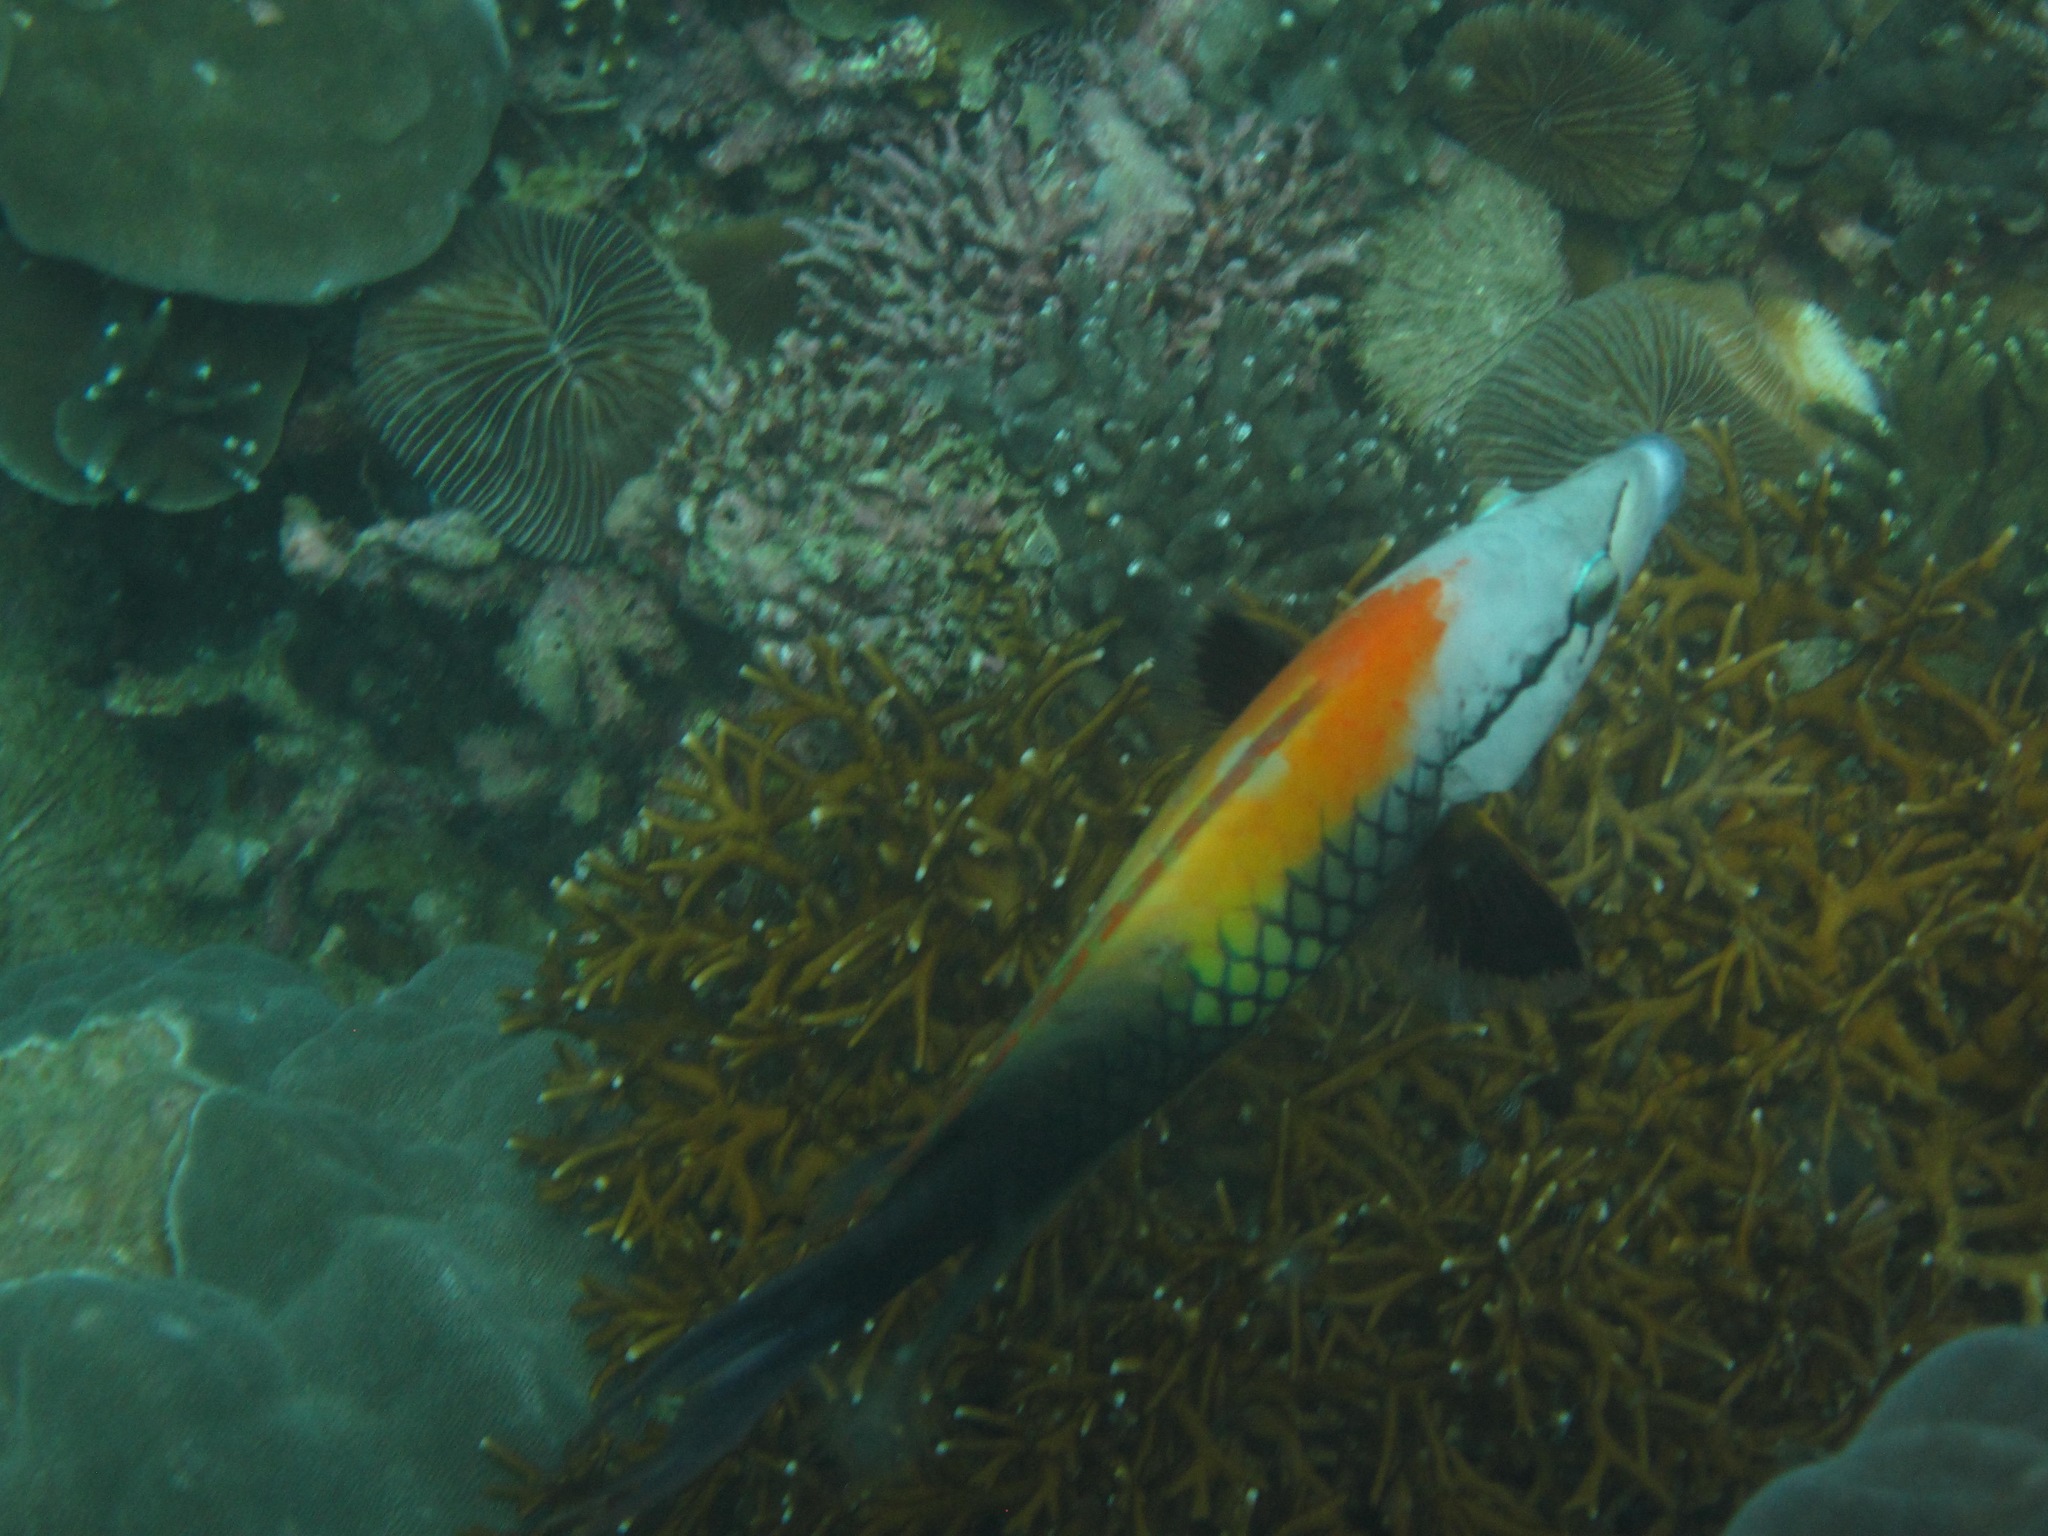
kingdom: Animalia
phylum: Chordata
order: Perciformes
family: Labridae
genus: Epibulus
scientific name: Epibulus insidiator
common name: Slingjaw wrasse
